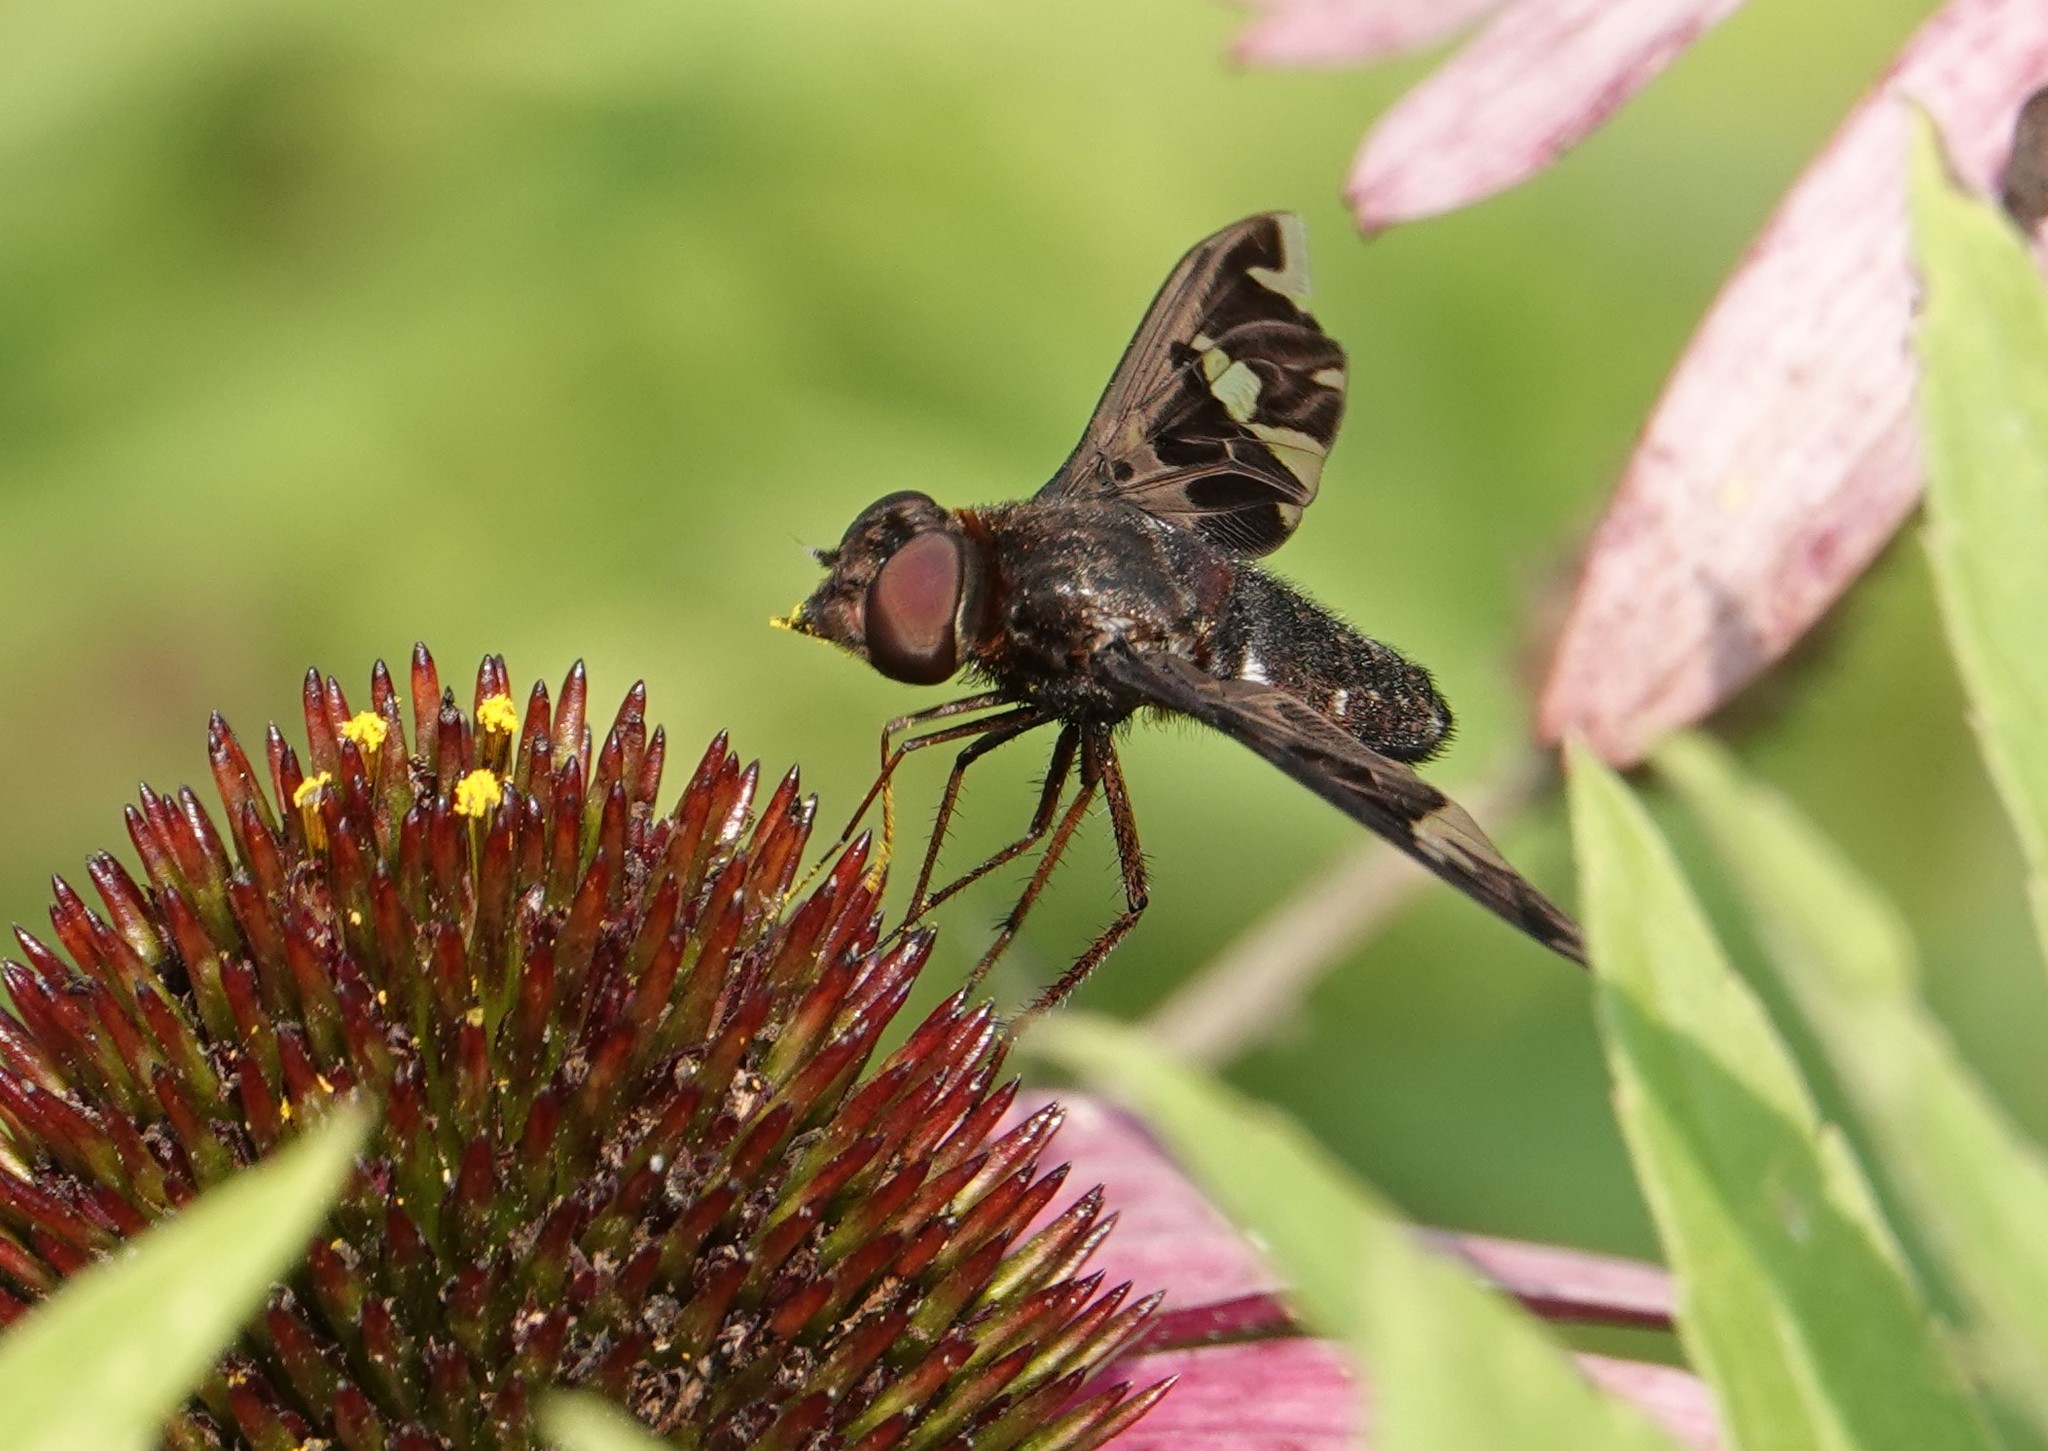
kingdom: Animalia
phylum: Arthropoda
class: Insecta
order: Diptera
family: Bombyliidae
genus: Exoprosopa
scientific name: Exoprosopa decora
